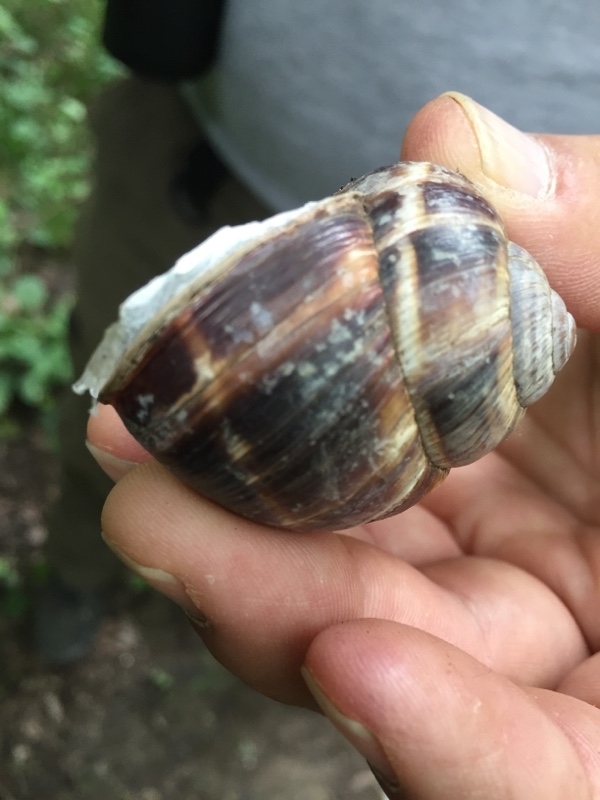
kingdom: Animalia
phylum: Mollusca
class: Gastropoda
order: Stylommatophora
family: Helicidae
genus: Helix
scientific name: Helix lucorum
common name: Turkish snail
